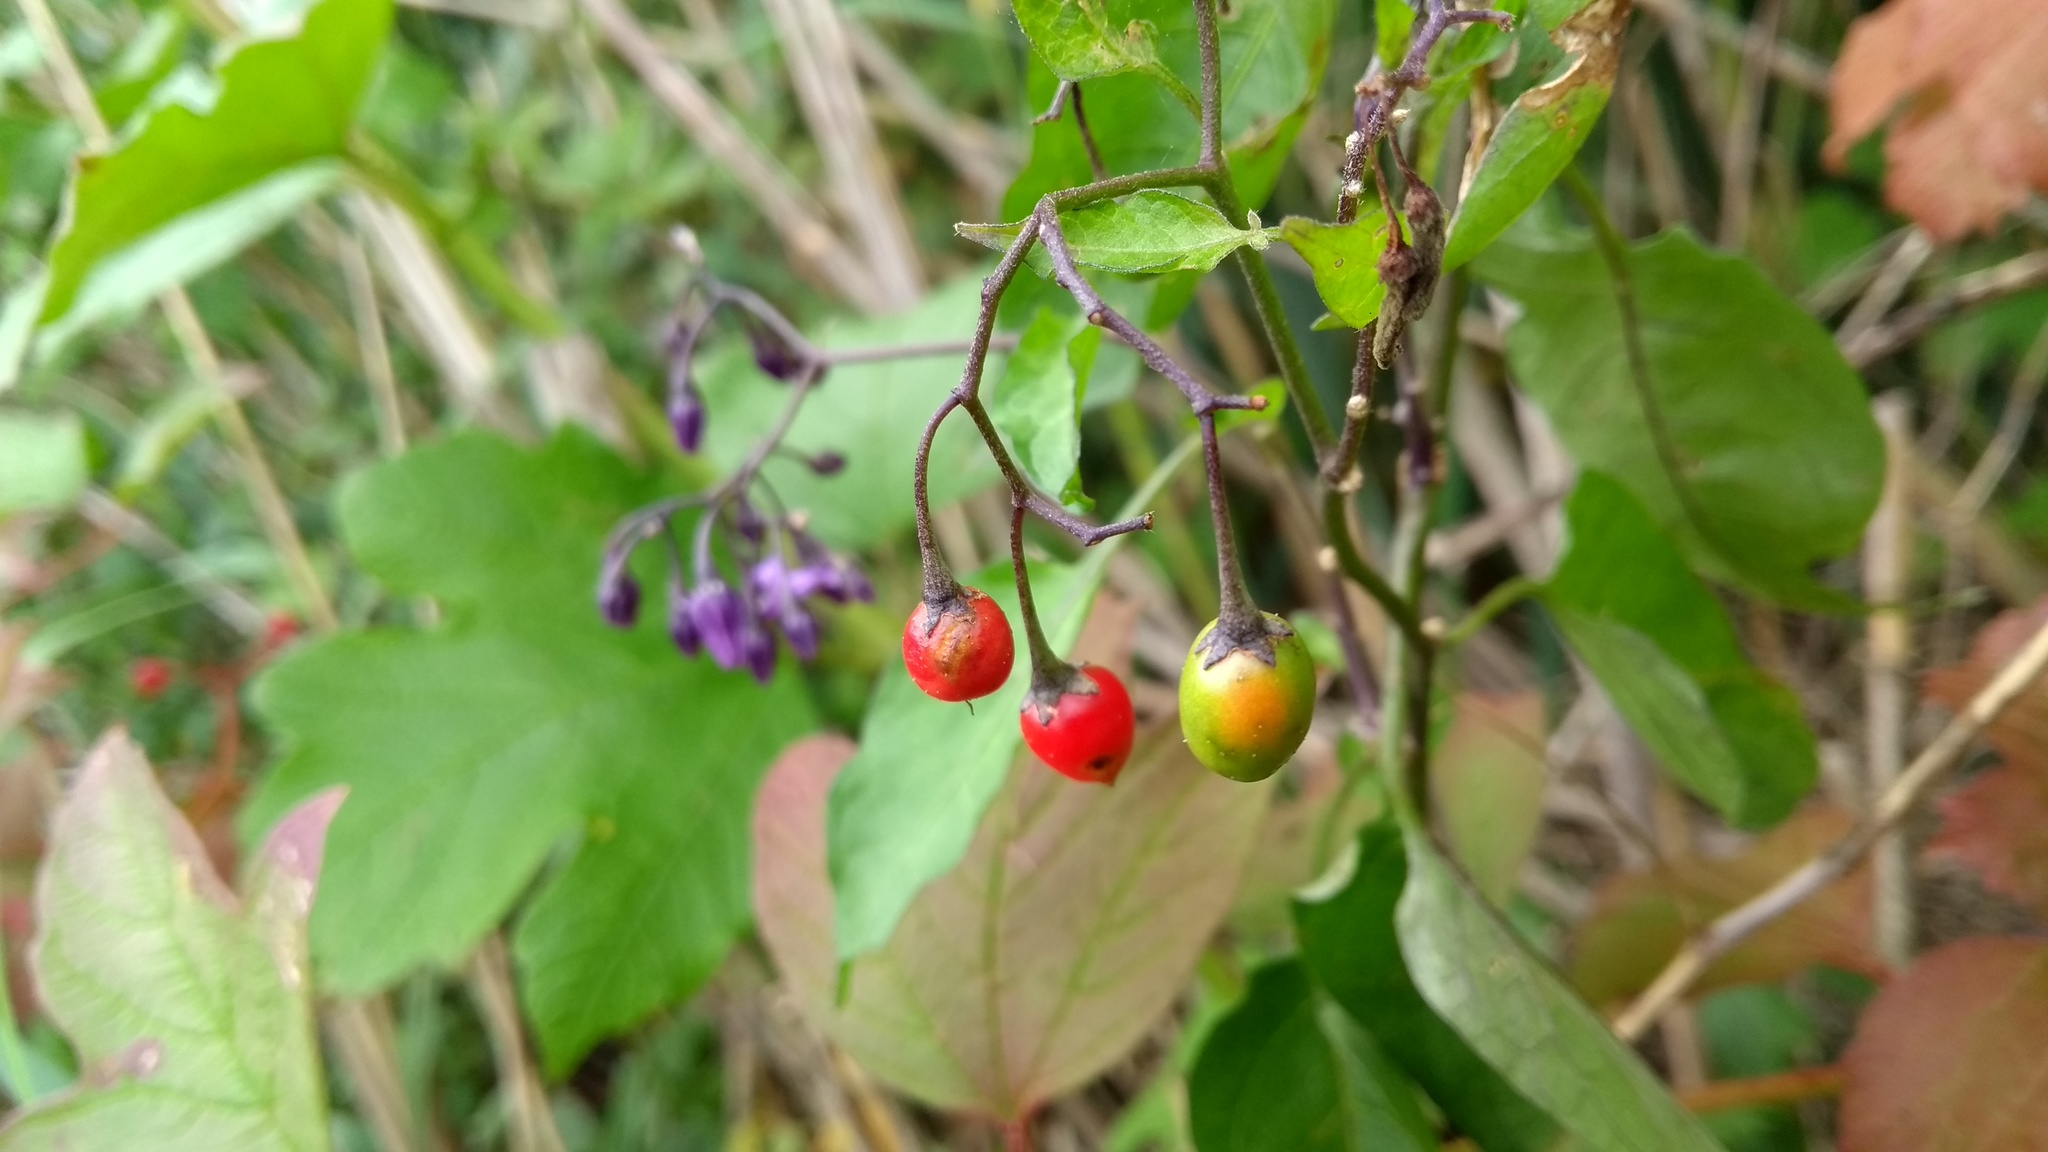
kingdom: Plantae
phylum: Tracheophyta
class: Magnoliopsida
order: Solanales
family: Solanaceae
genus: Solanum
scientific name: Solanum dulcamara
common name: Climbing nightshade
